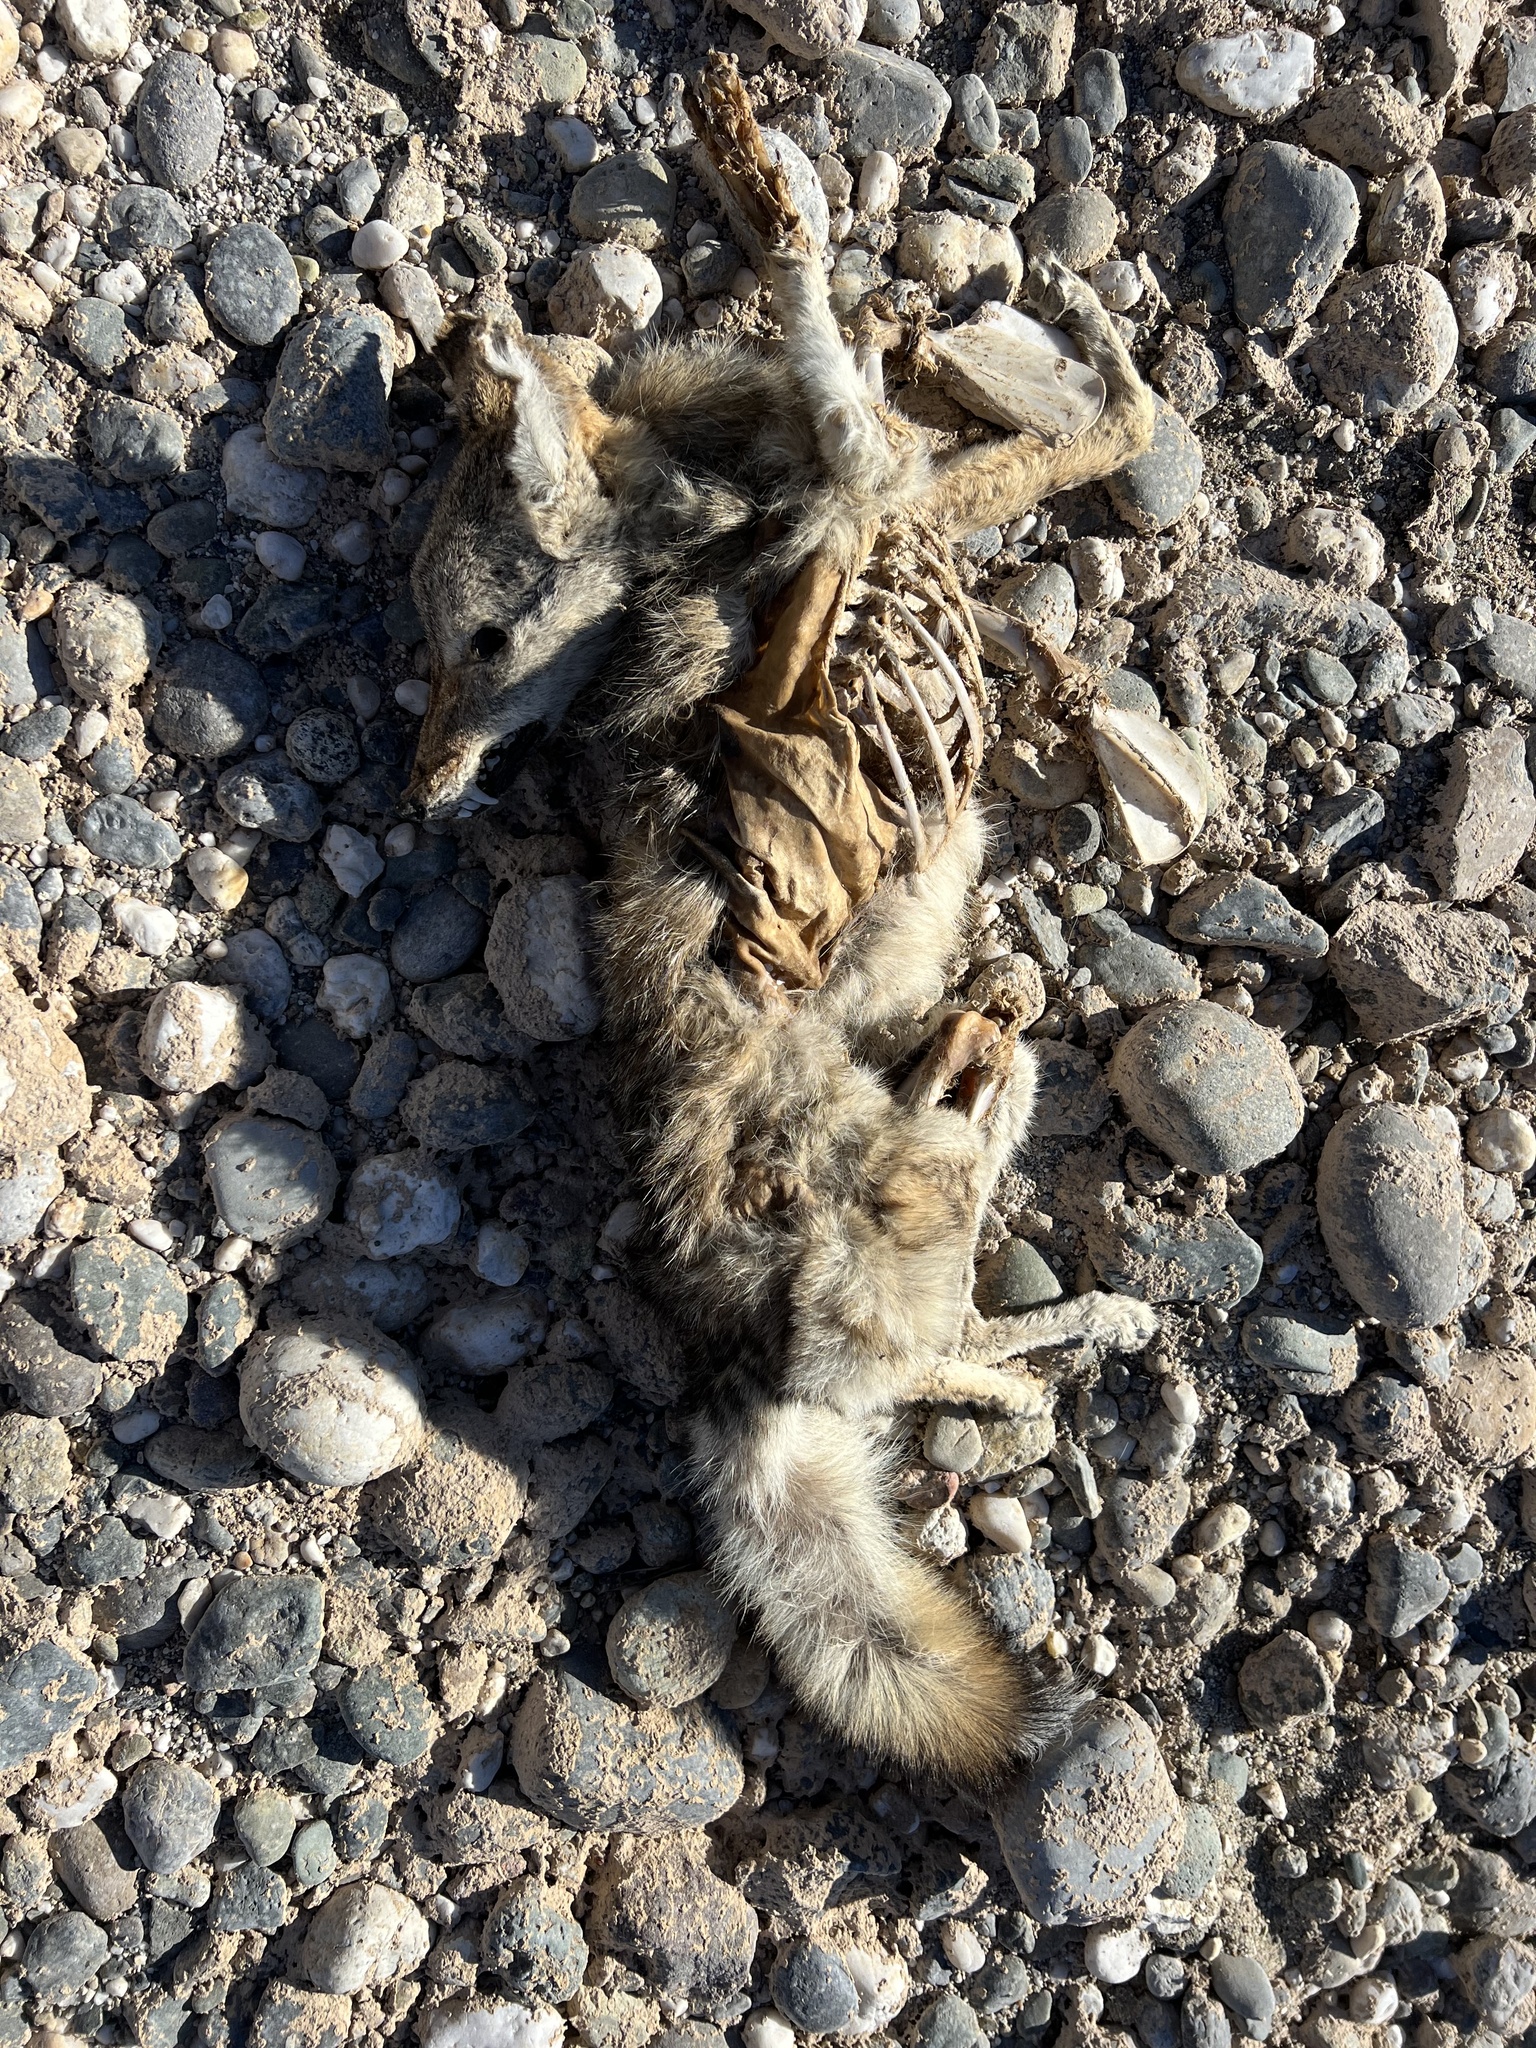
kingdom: Animalia
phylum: Chordata
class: Mammalia
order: Carnivora
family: Canidae
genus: Canis
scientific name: Canis latrans
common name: Coyote
